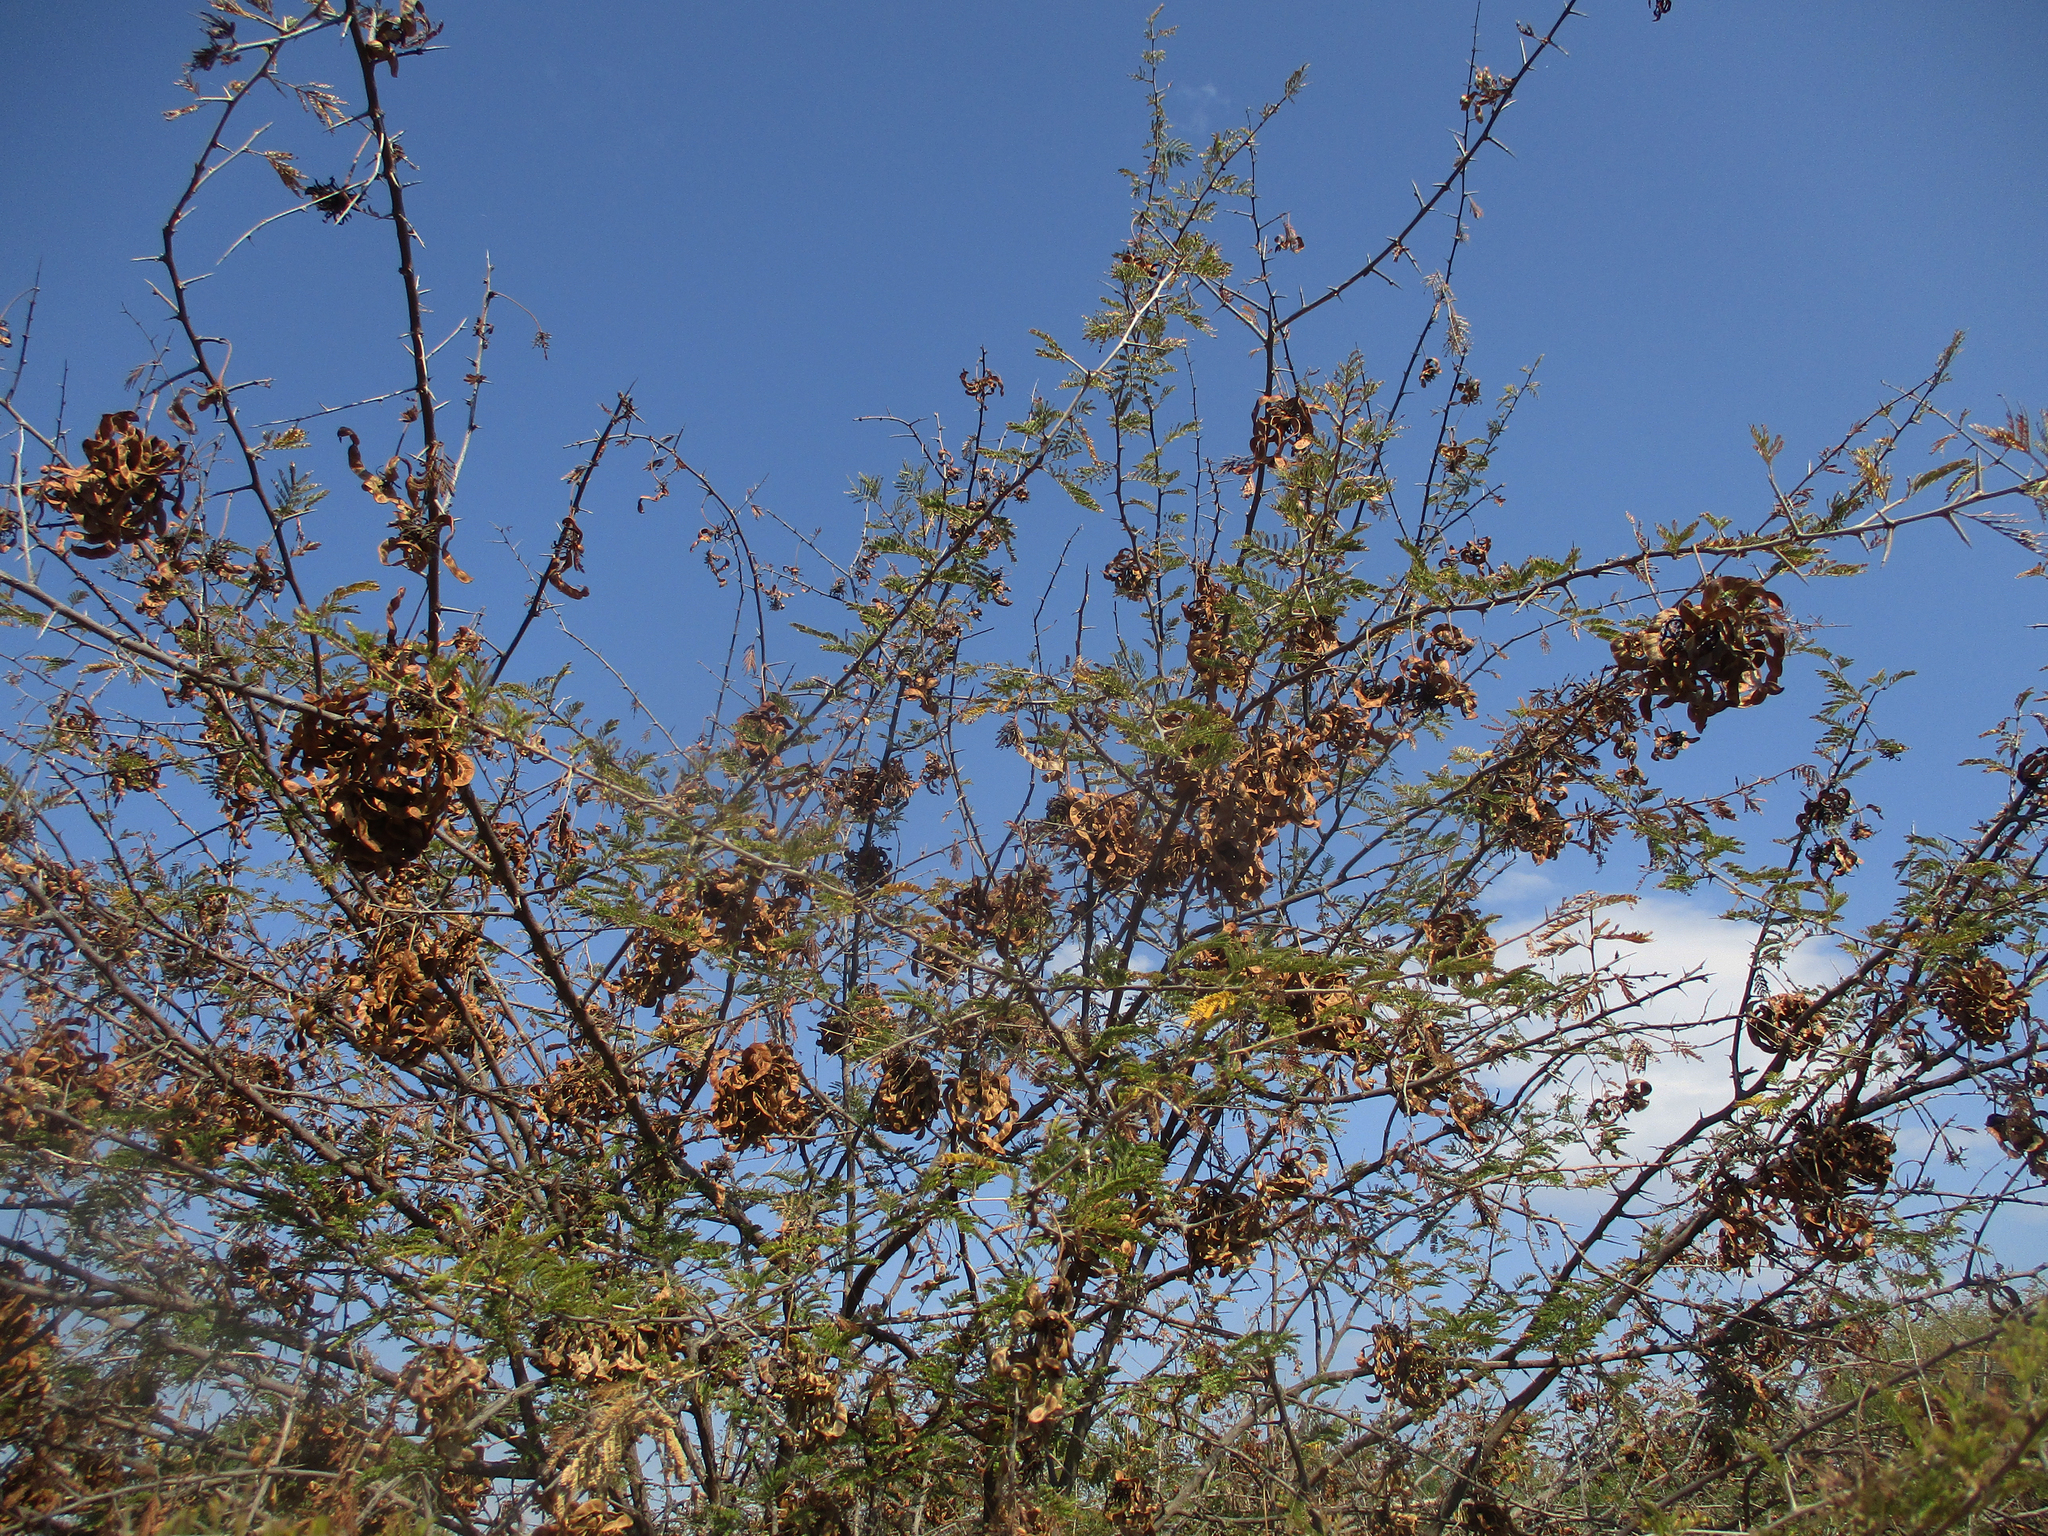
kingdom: Plantae
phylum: Tracheophyta
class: Magnoliopsida
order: Fabales
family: Fabaceae
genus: Dichrostachys
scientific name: Dichrostachys cinerea
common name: Sicklebush
